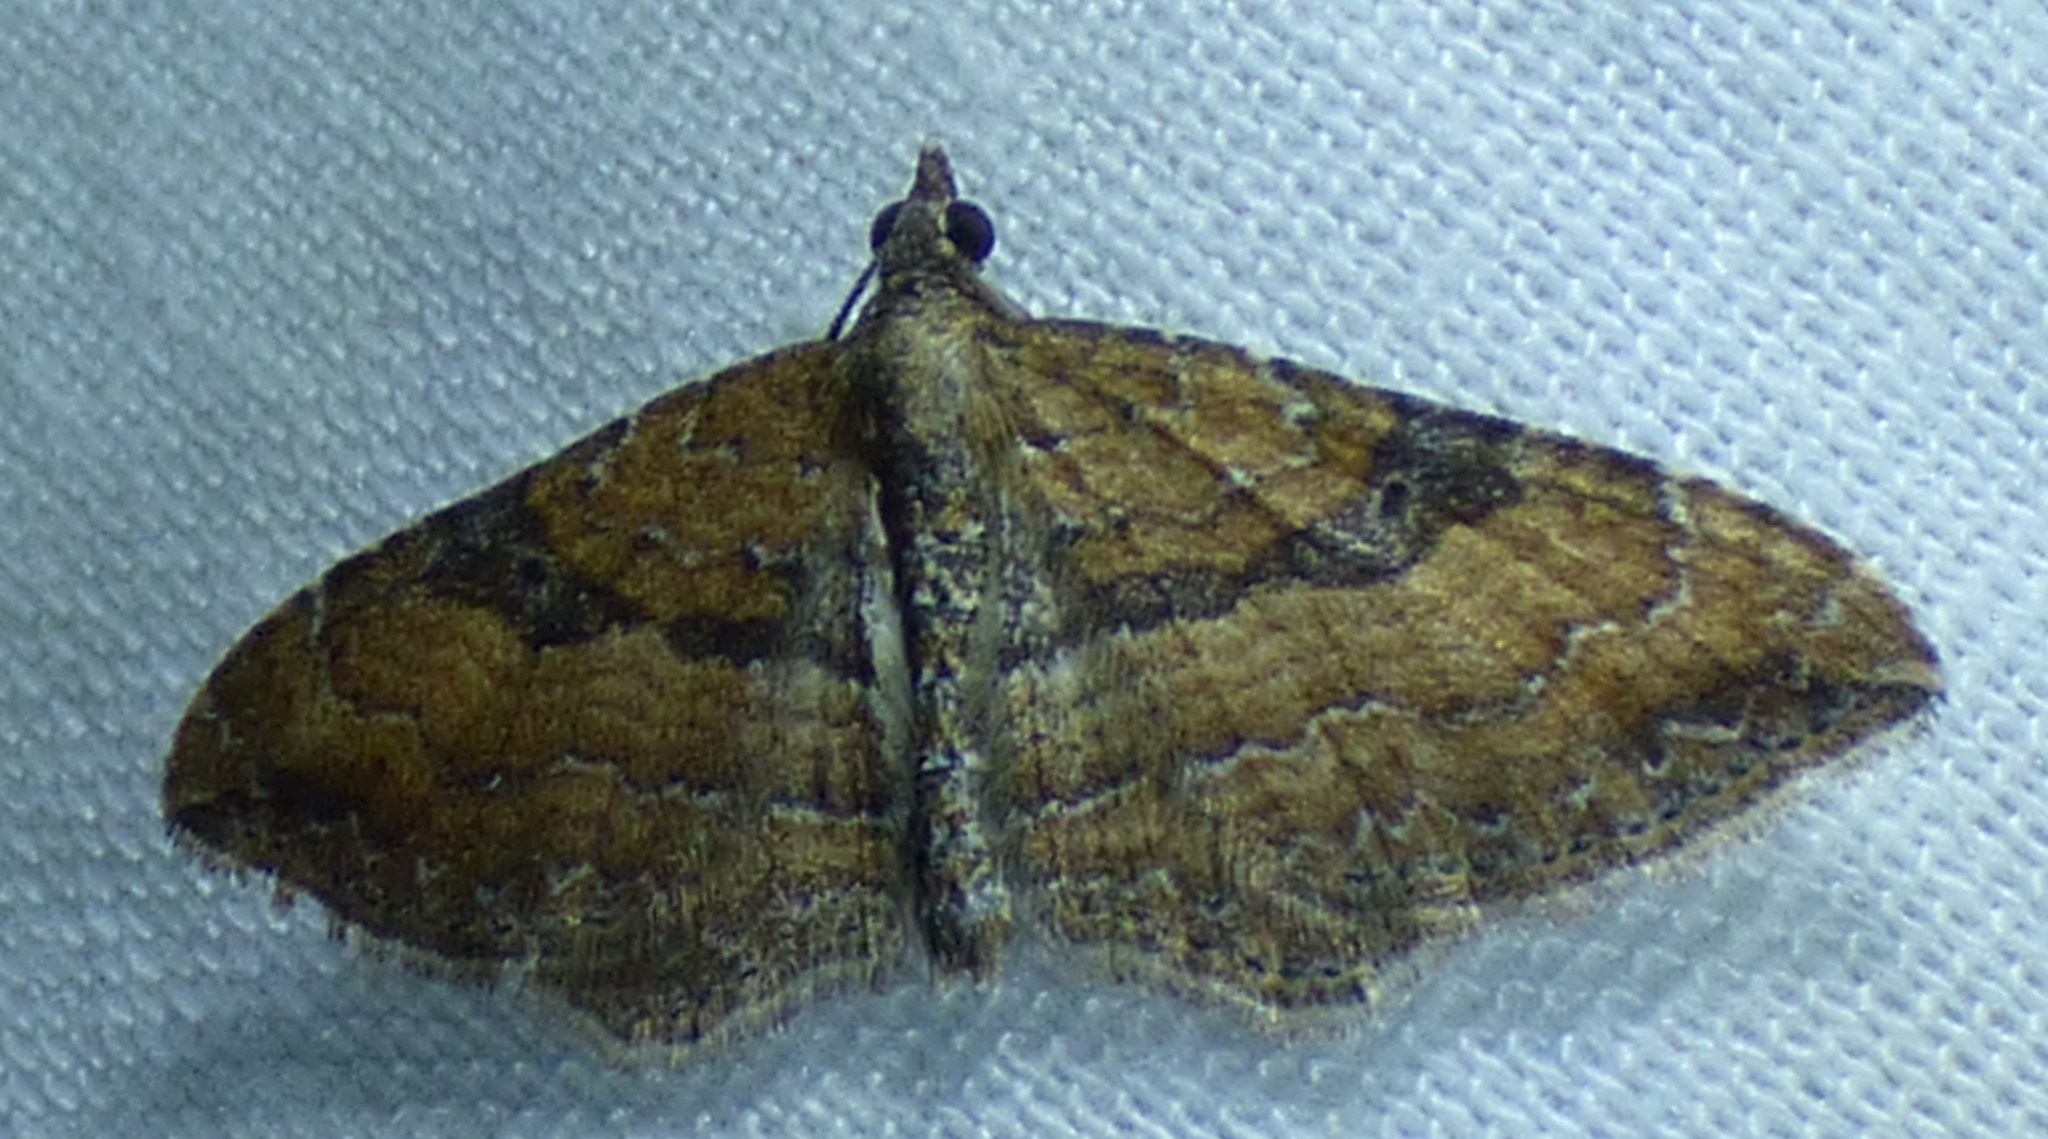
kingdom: Animalia
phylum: Arthropoda
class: Insecta
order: Lepidoptera
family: Geometridae
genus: Orthonama
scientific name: Orthonama obstipata
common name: The gem
